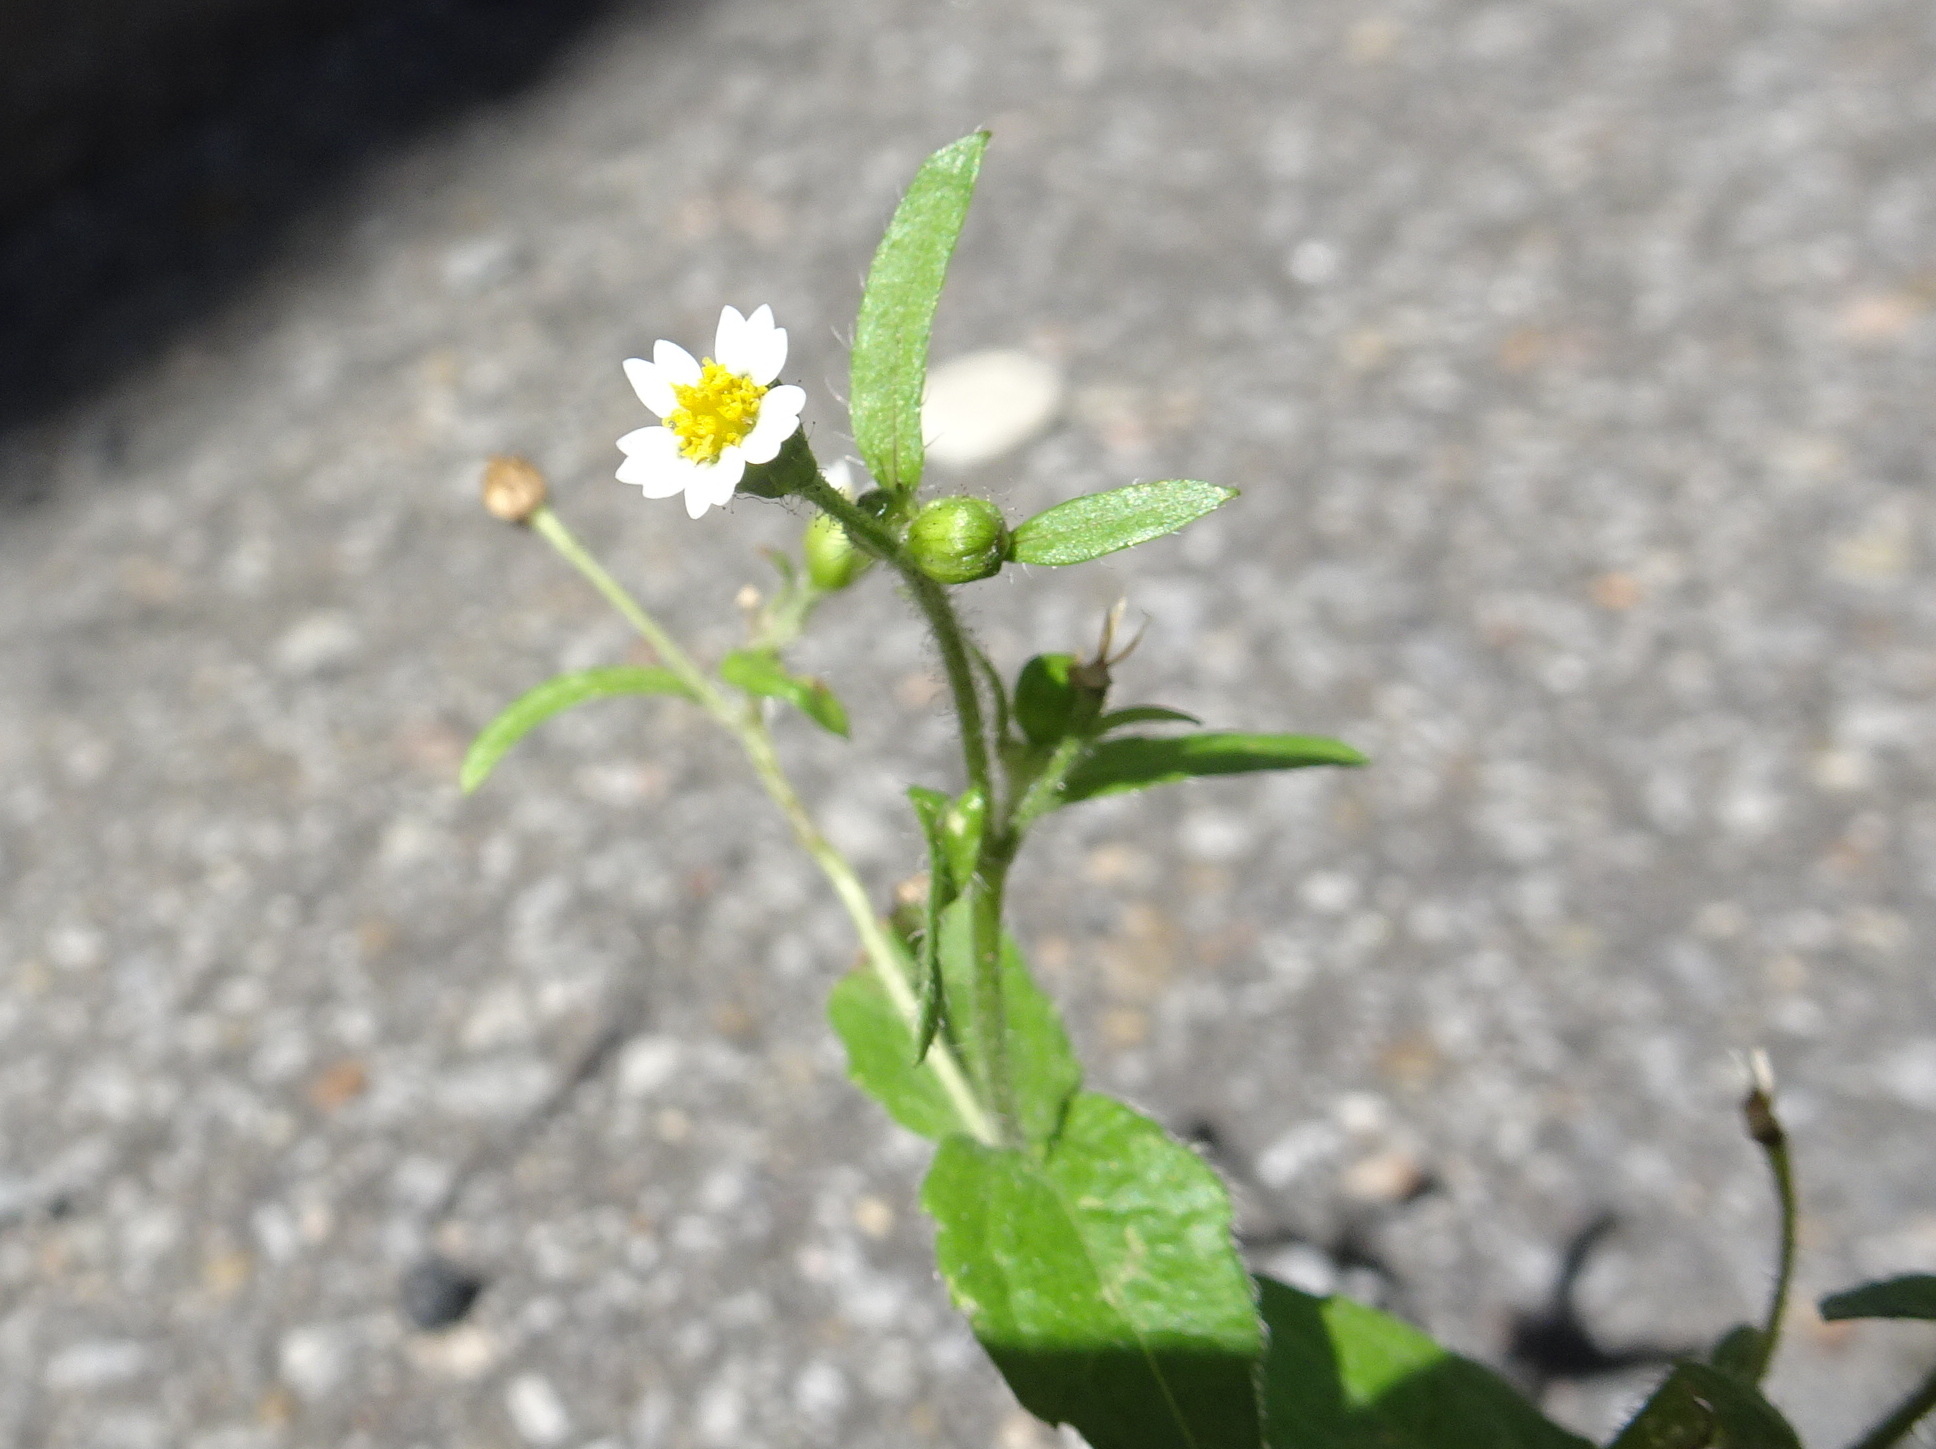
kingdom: Plantae
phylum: Tracheophyta
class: Magnoliopsida
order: Asterales
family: Asteraceae
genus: Galinsoga
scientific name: Galinsoga quadriradiata
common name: Shaggy soldier
